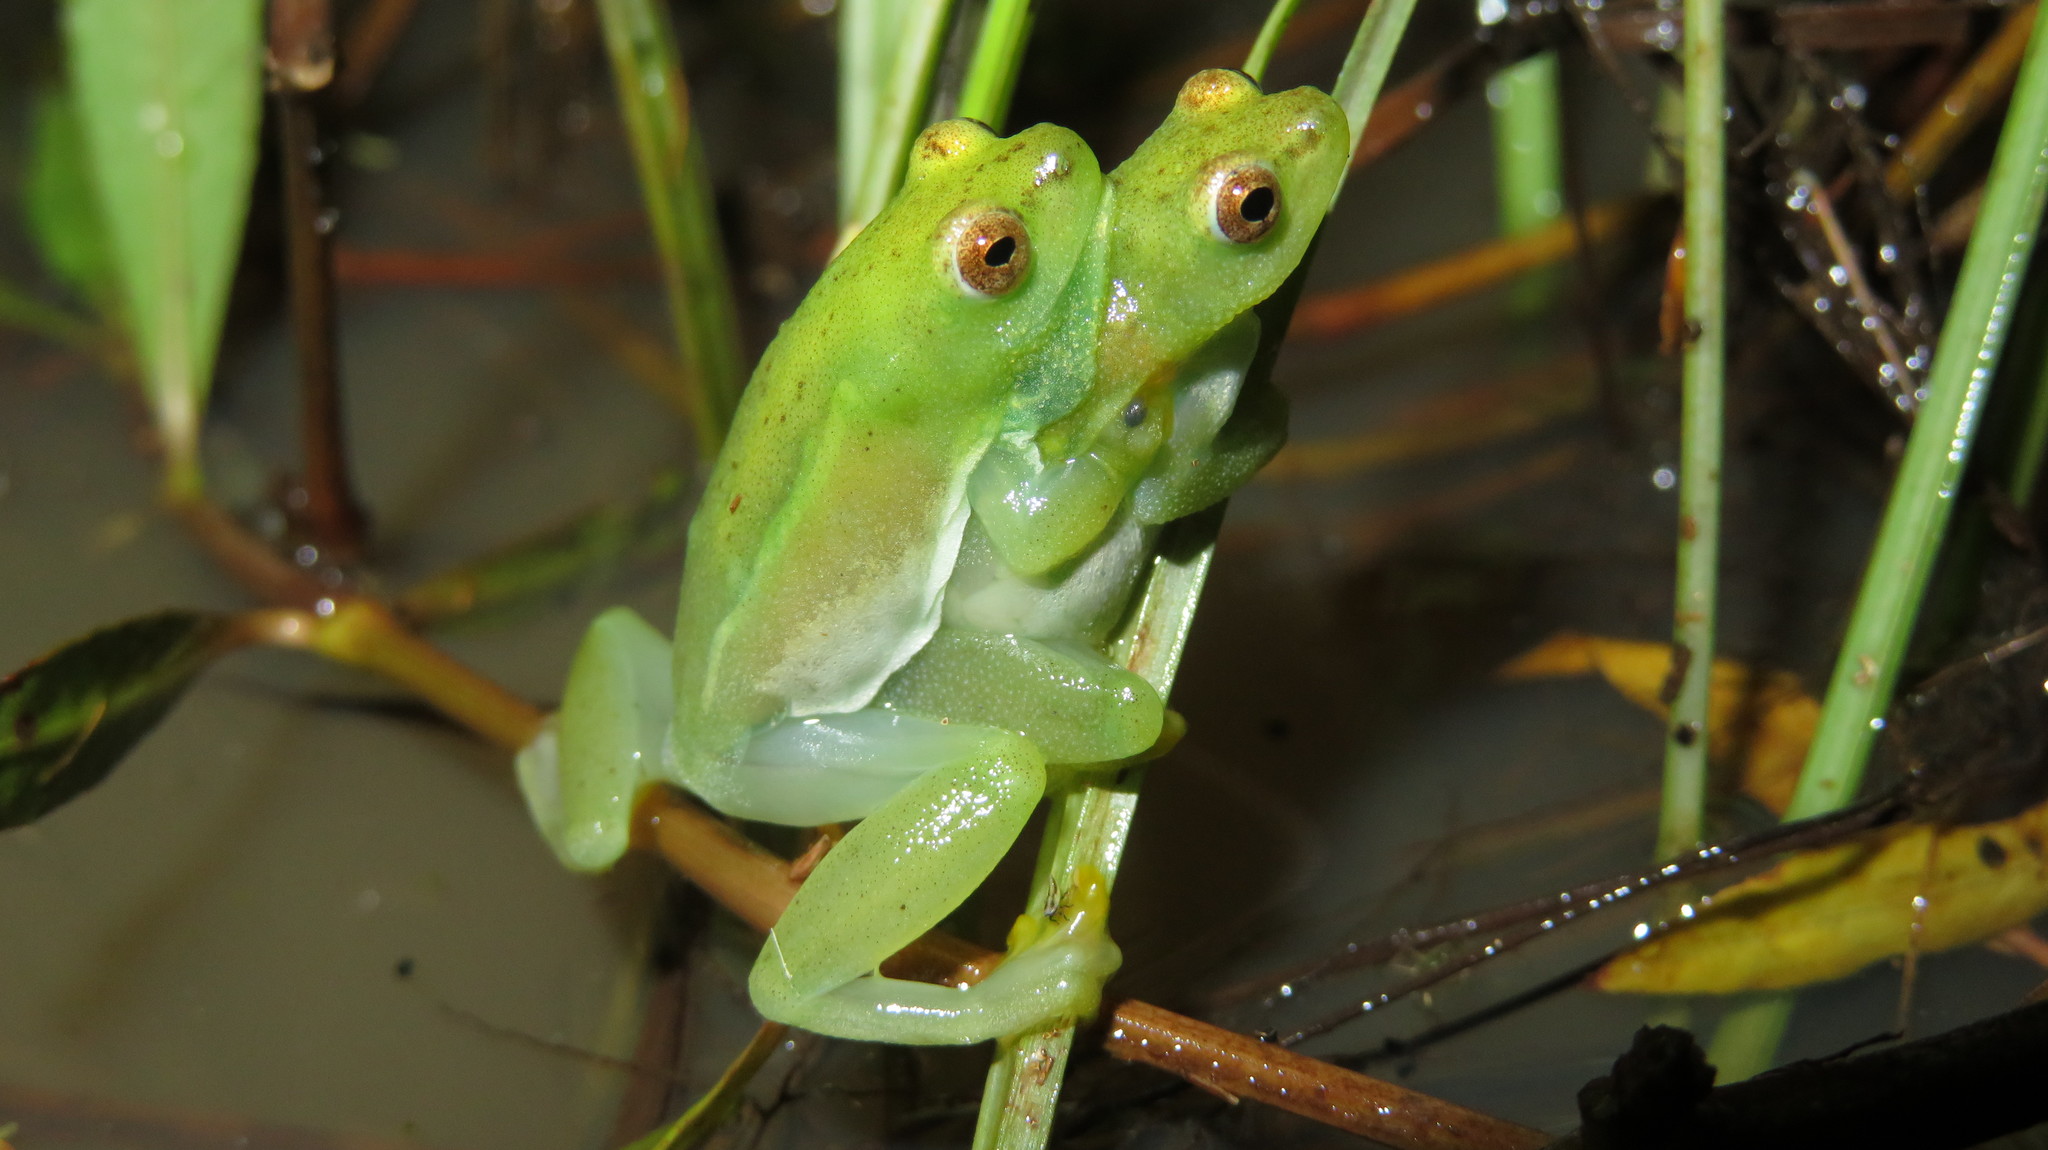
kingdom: Animalia
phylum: Chordata
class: Amphibia
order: Anura
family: Hyperoliidae
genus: Hyperolius
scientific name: Hyperolius pusillus
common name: Water lily reed frog
